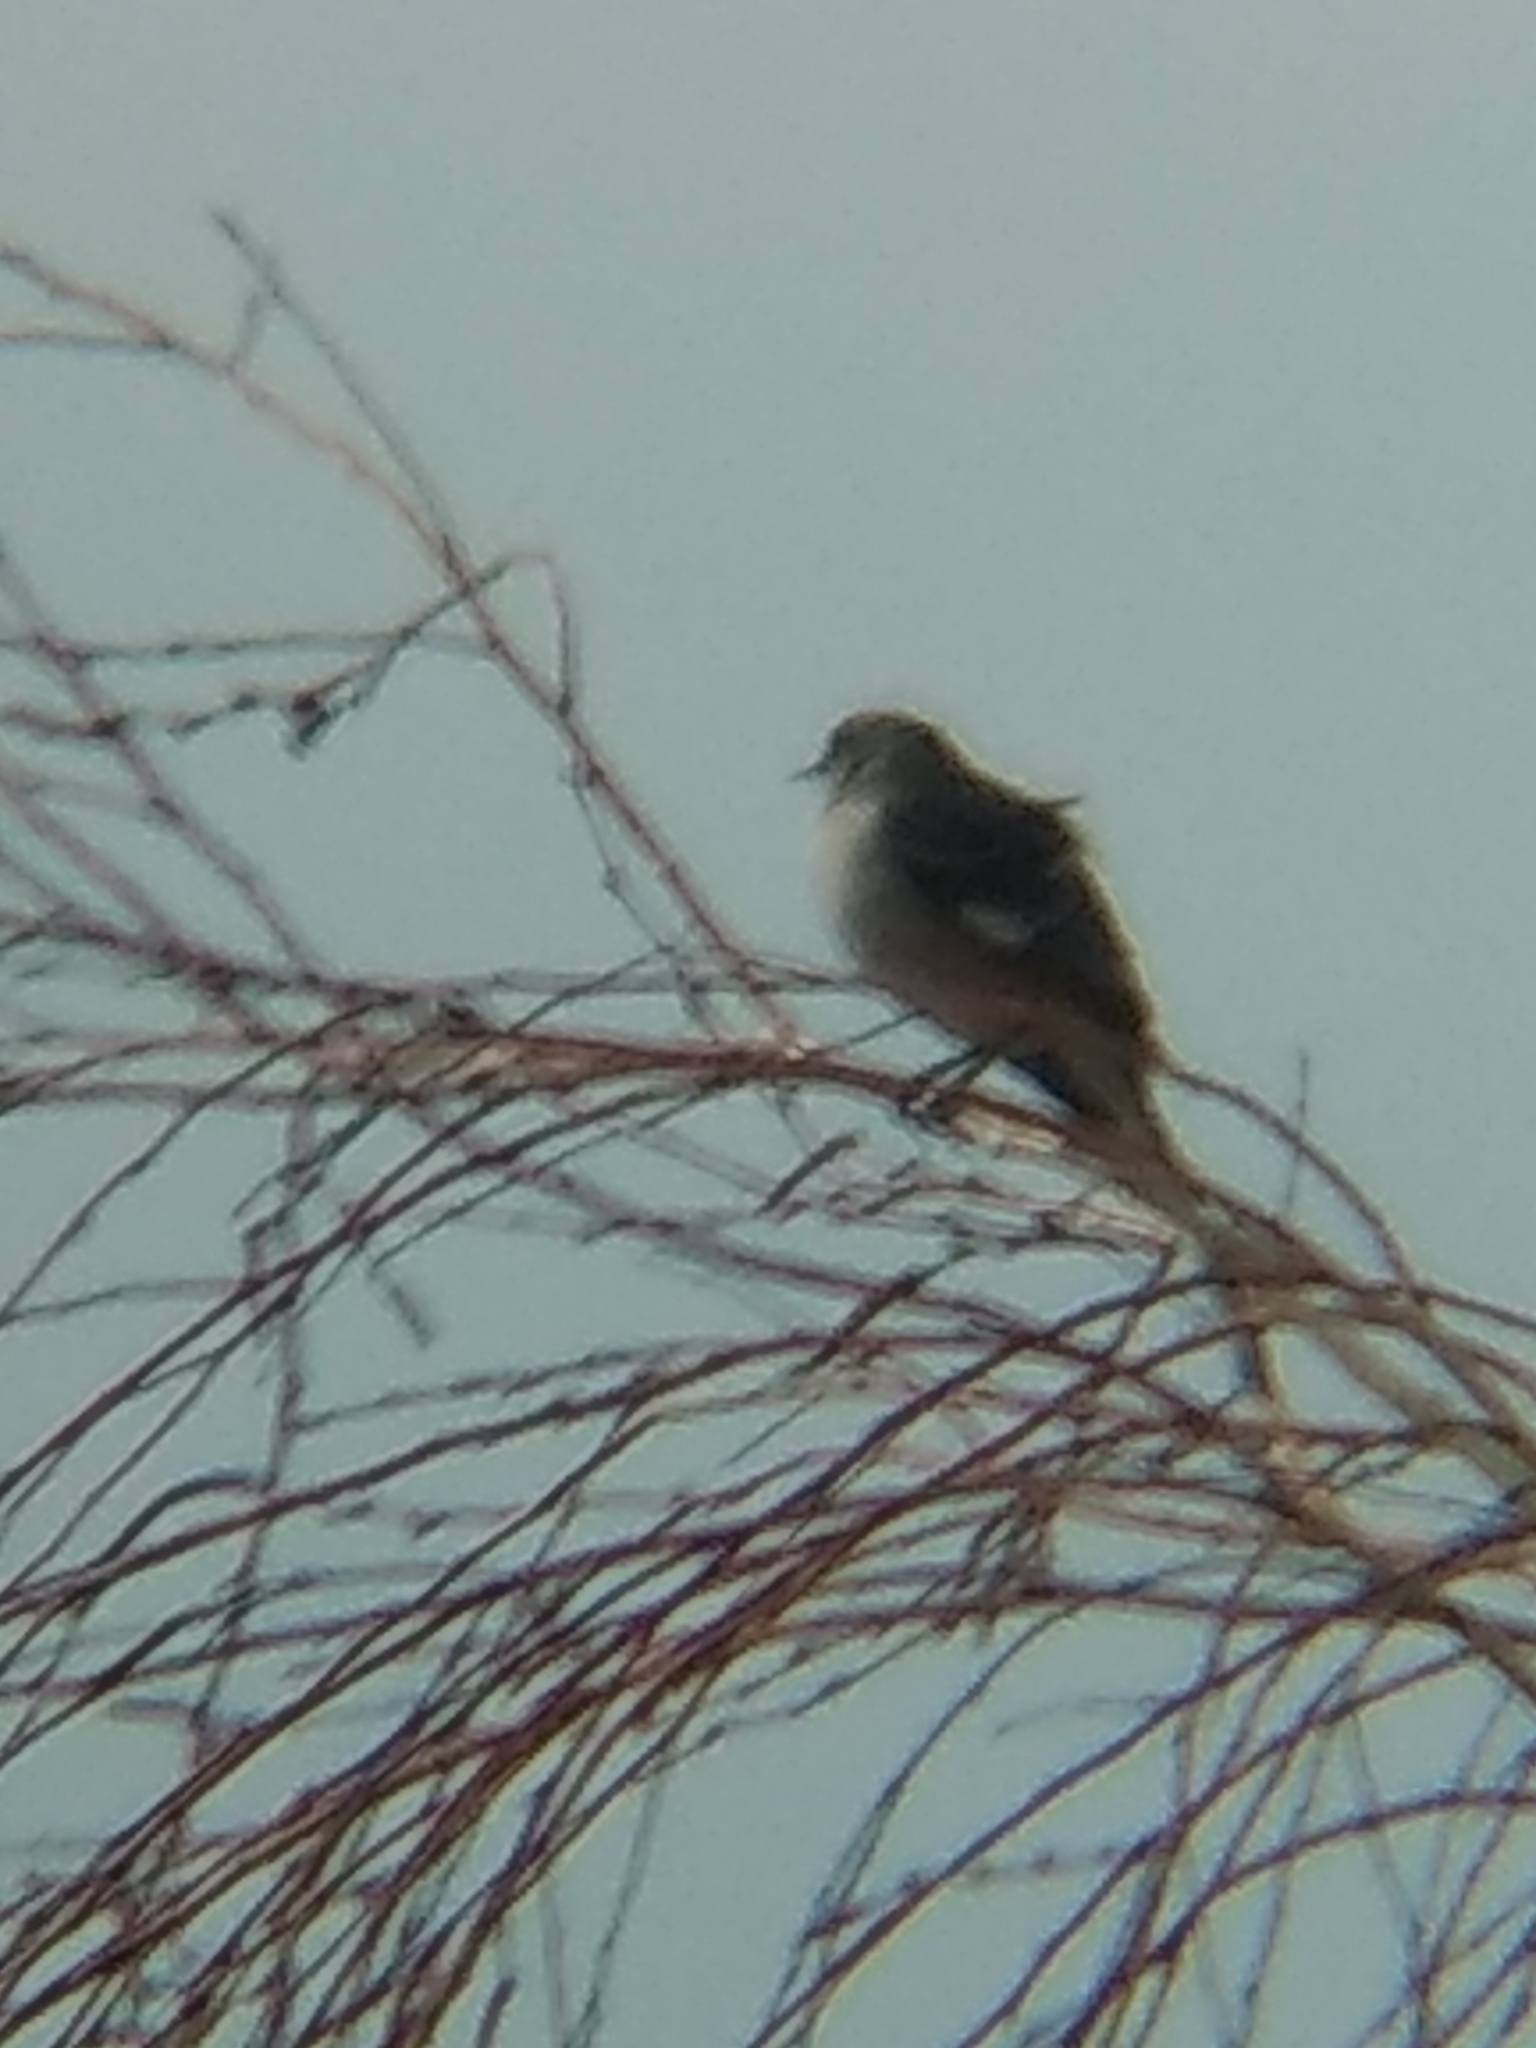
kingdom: Animalia
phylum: Chordata
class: Aves
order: Passeriformes
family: Mimidae
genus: Mimus
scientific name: Mimus polyglottos
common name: Northern mockingbird
